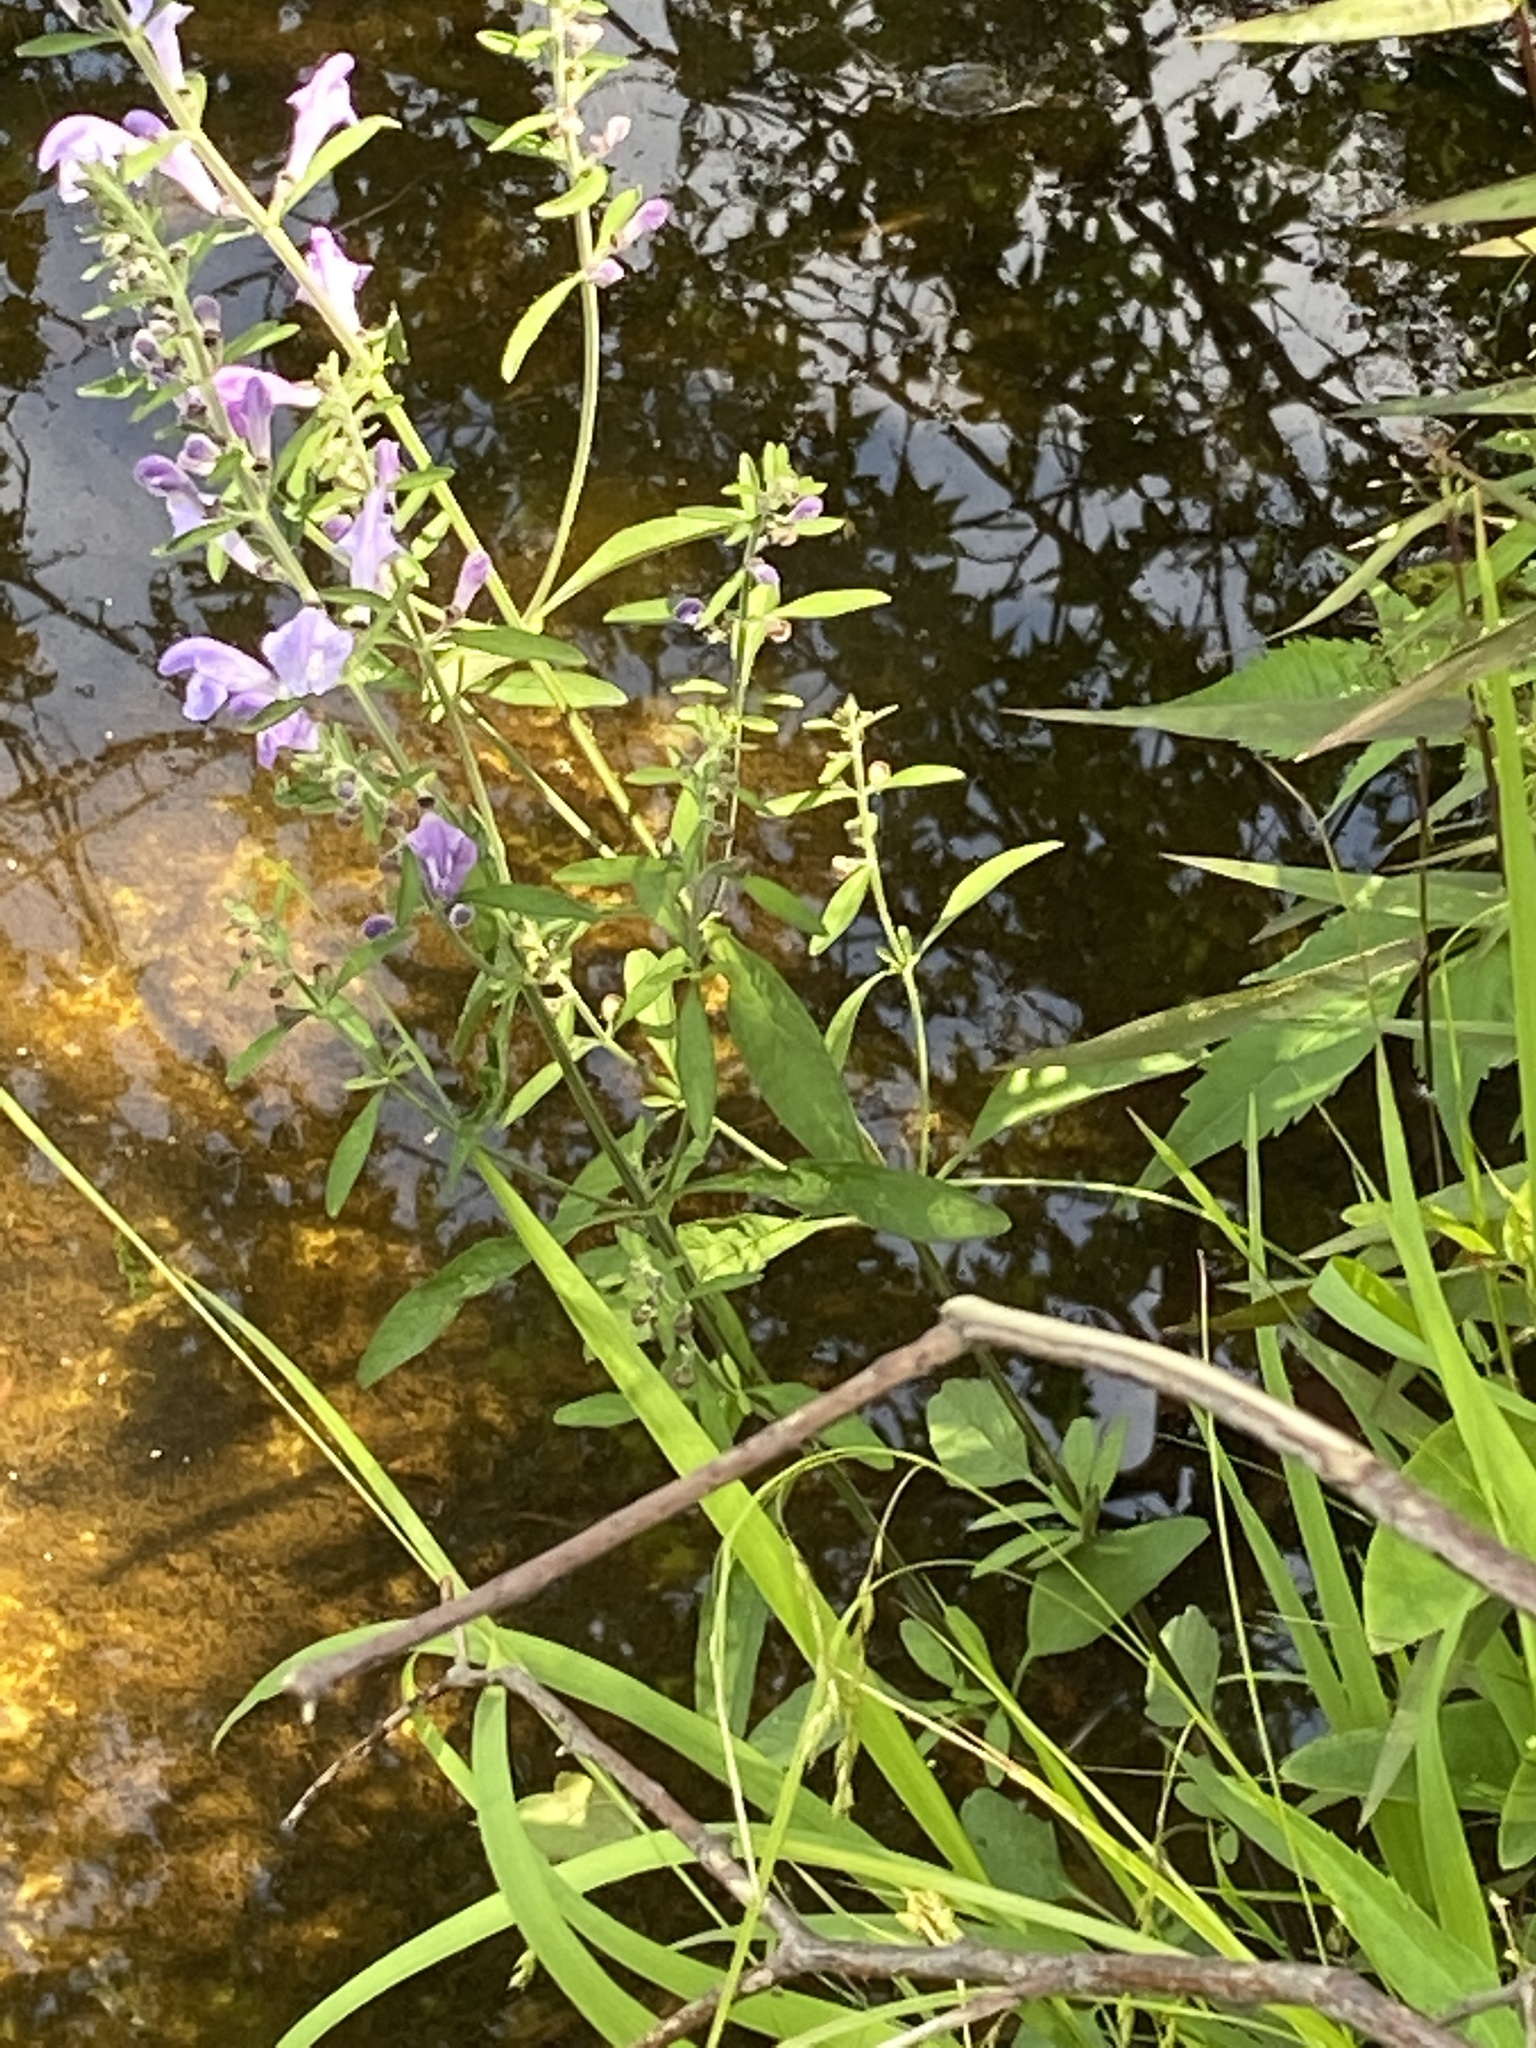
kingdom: Plantae
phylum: Tracheophyta
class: Magnoliopsida
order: Lamiales
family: Lamiaceae
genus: Scutellaria
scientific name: Scutellaria integrifolia
